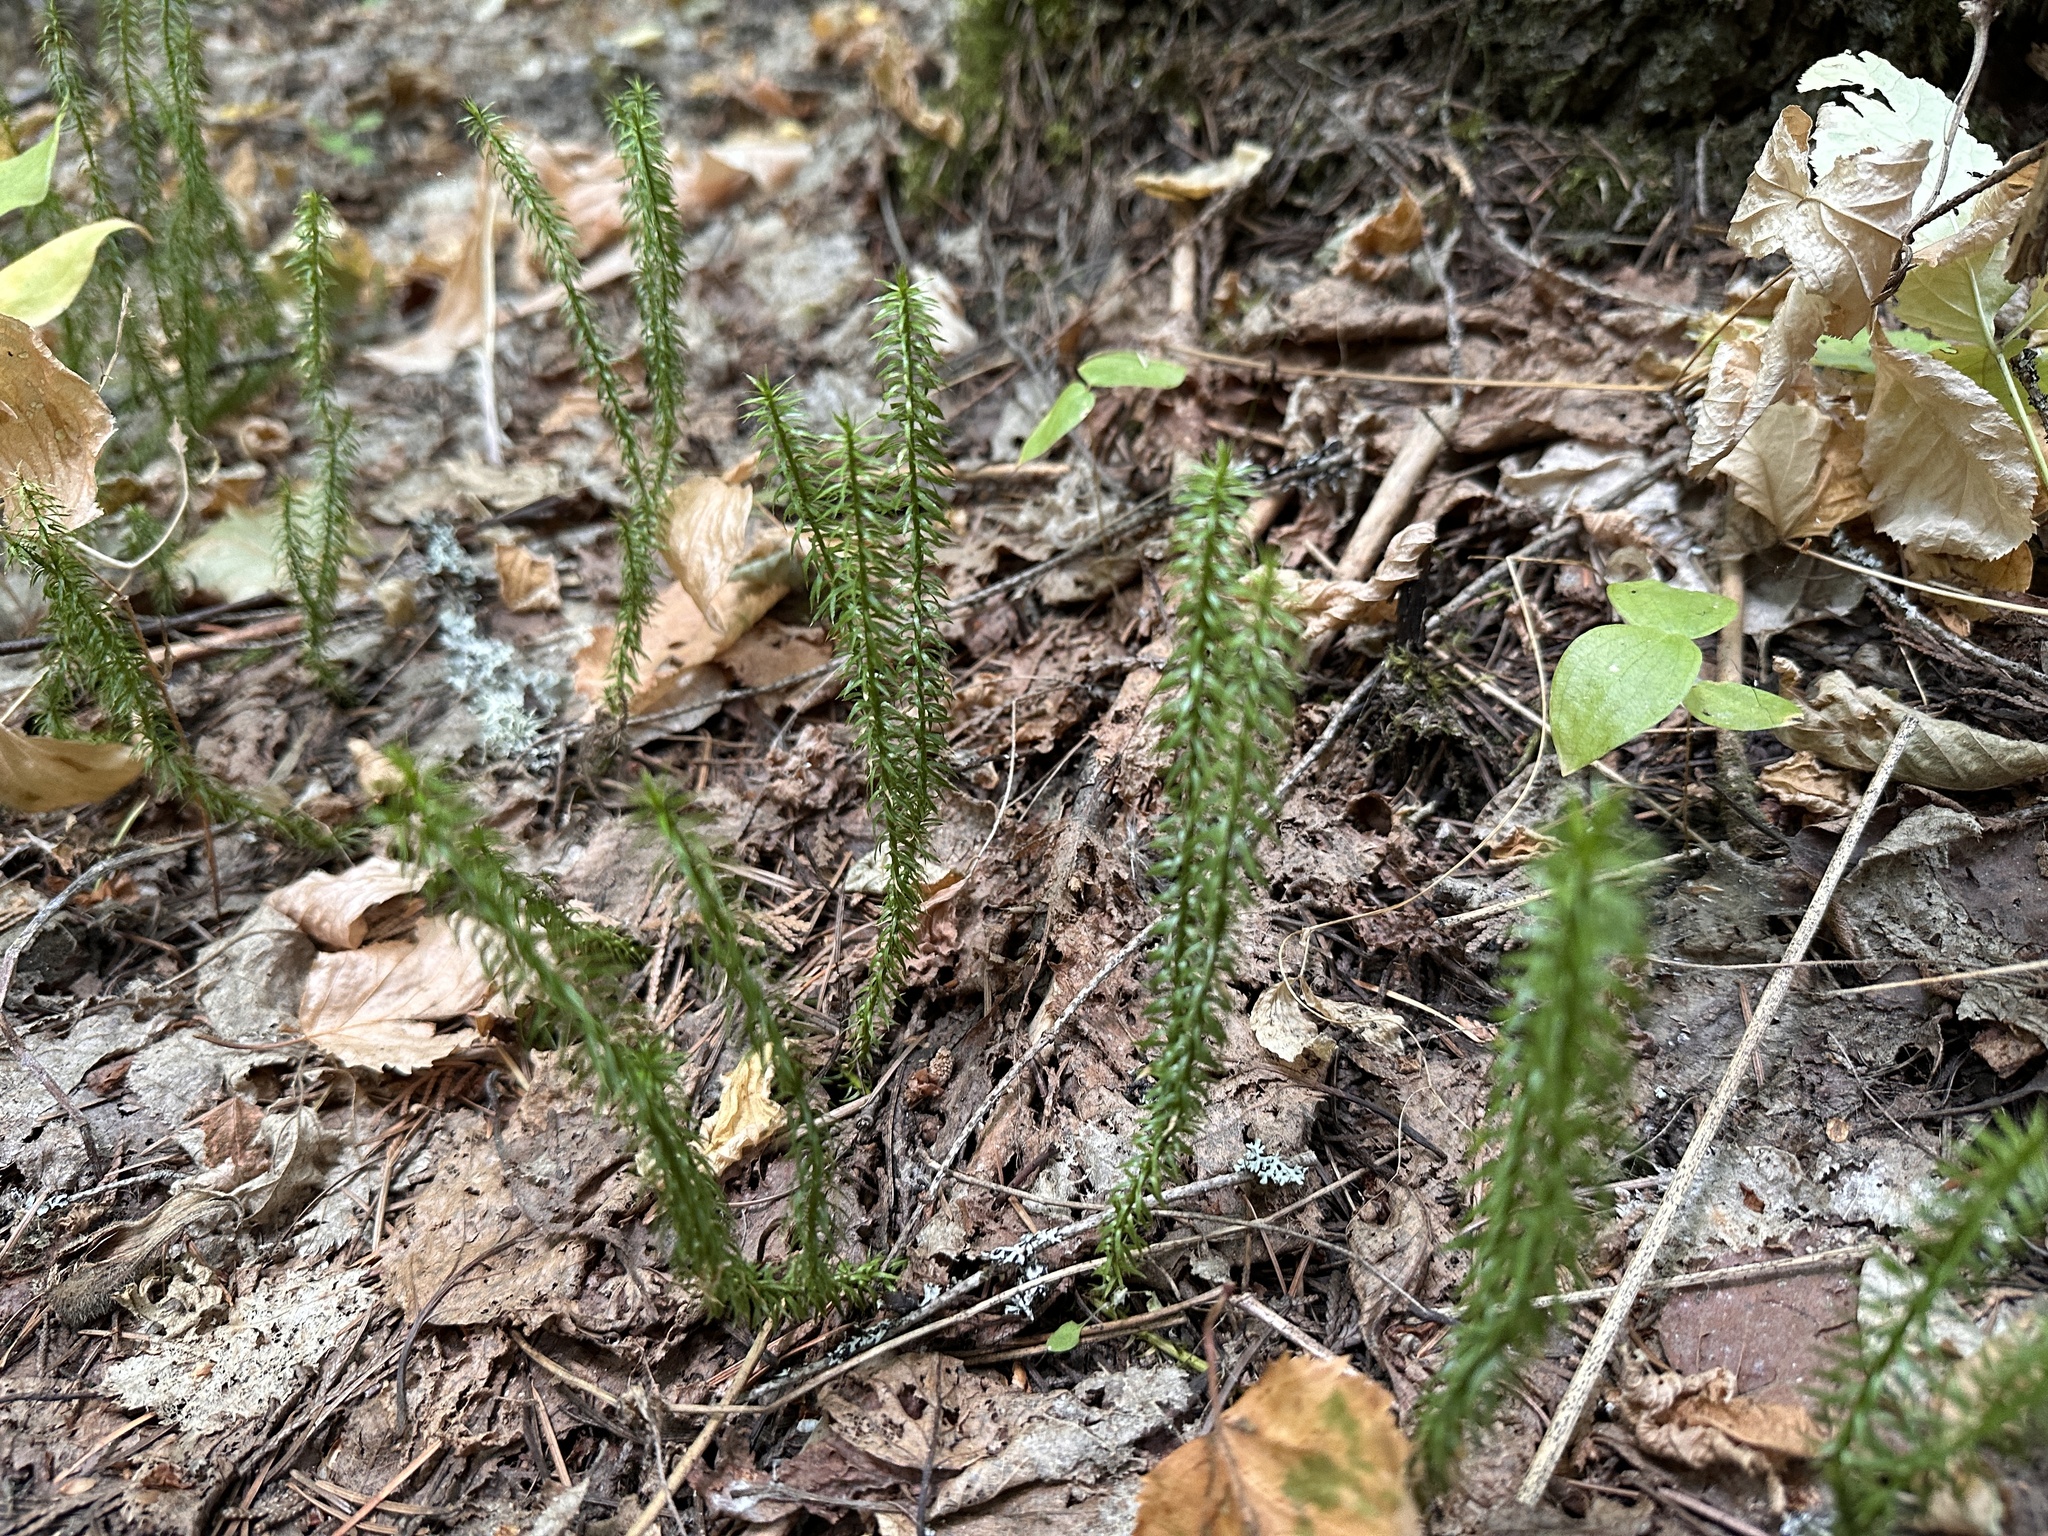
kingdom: Plantae
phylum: Tracheophyta
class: Lycopodiopsida
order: Lycopodiales
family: Lycopodiaceae
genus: Spinulum
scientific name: Spinulum annotinum
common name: Interrupted club-moss
